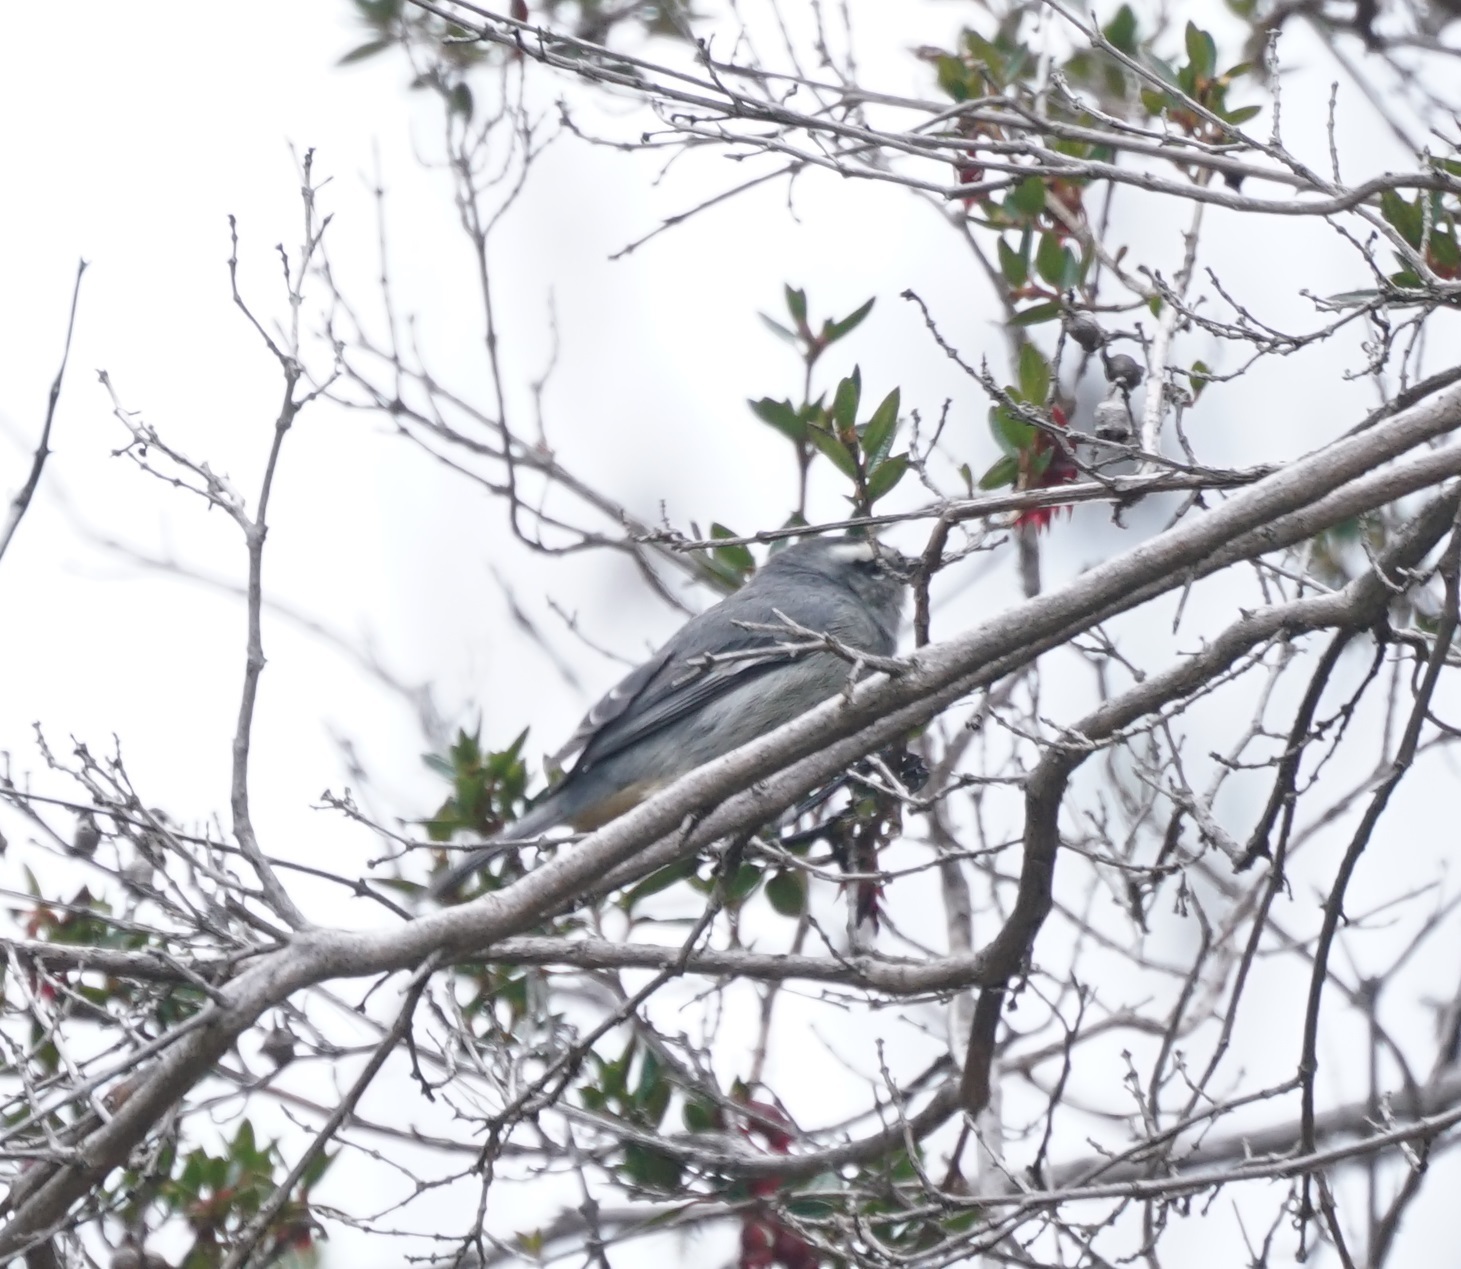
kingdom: Animalia
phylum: Chordata
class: Aves
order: Passeriformes
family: Thraupidae
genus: Conirostrum
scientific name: Conirostrum cinereum
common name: Cinereous conebill
